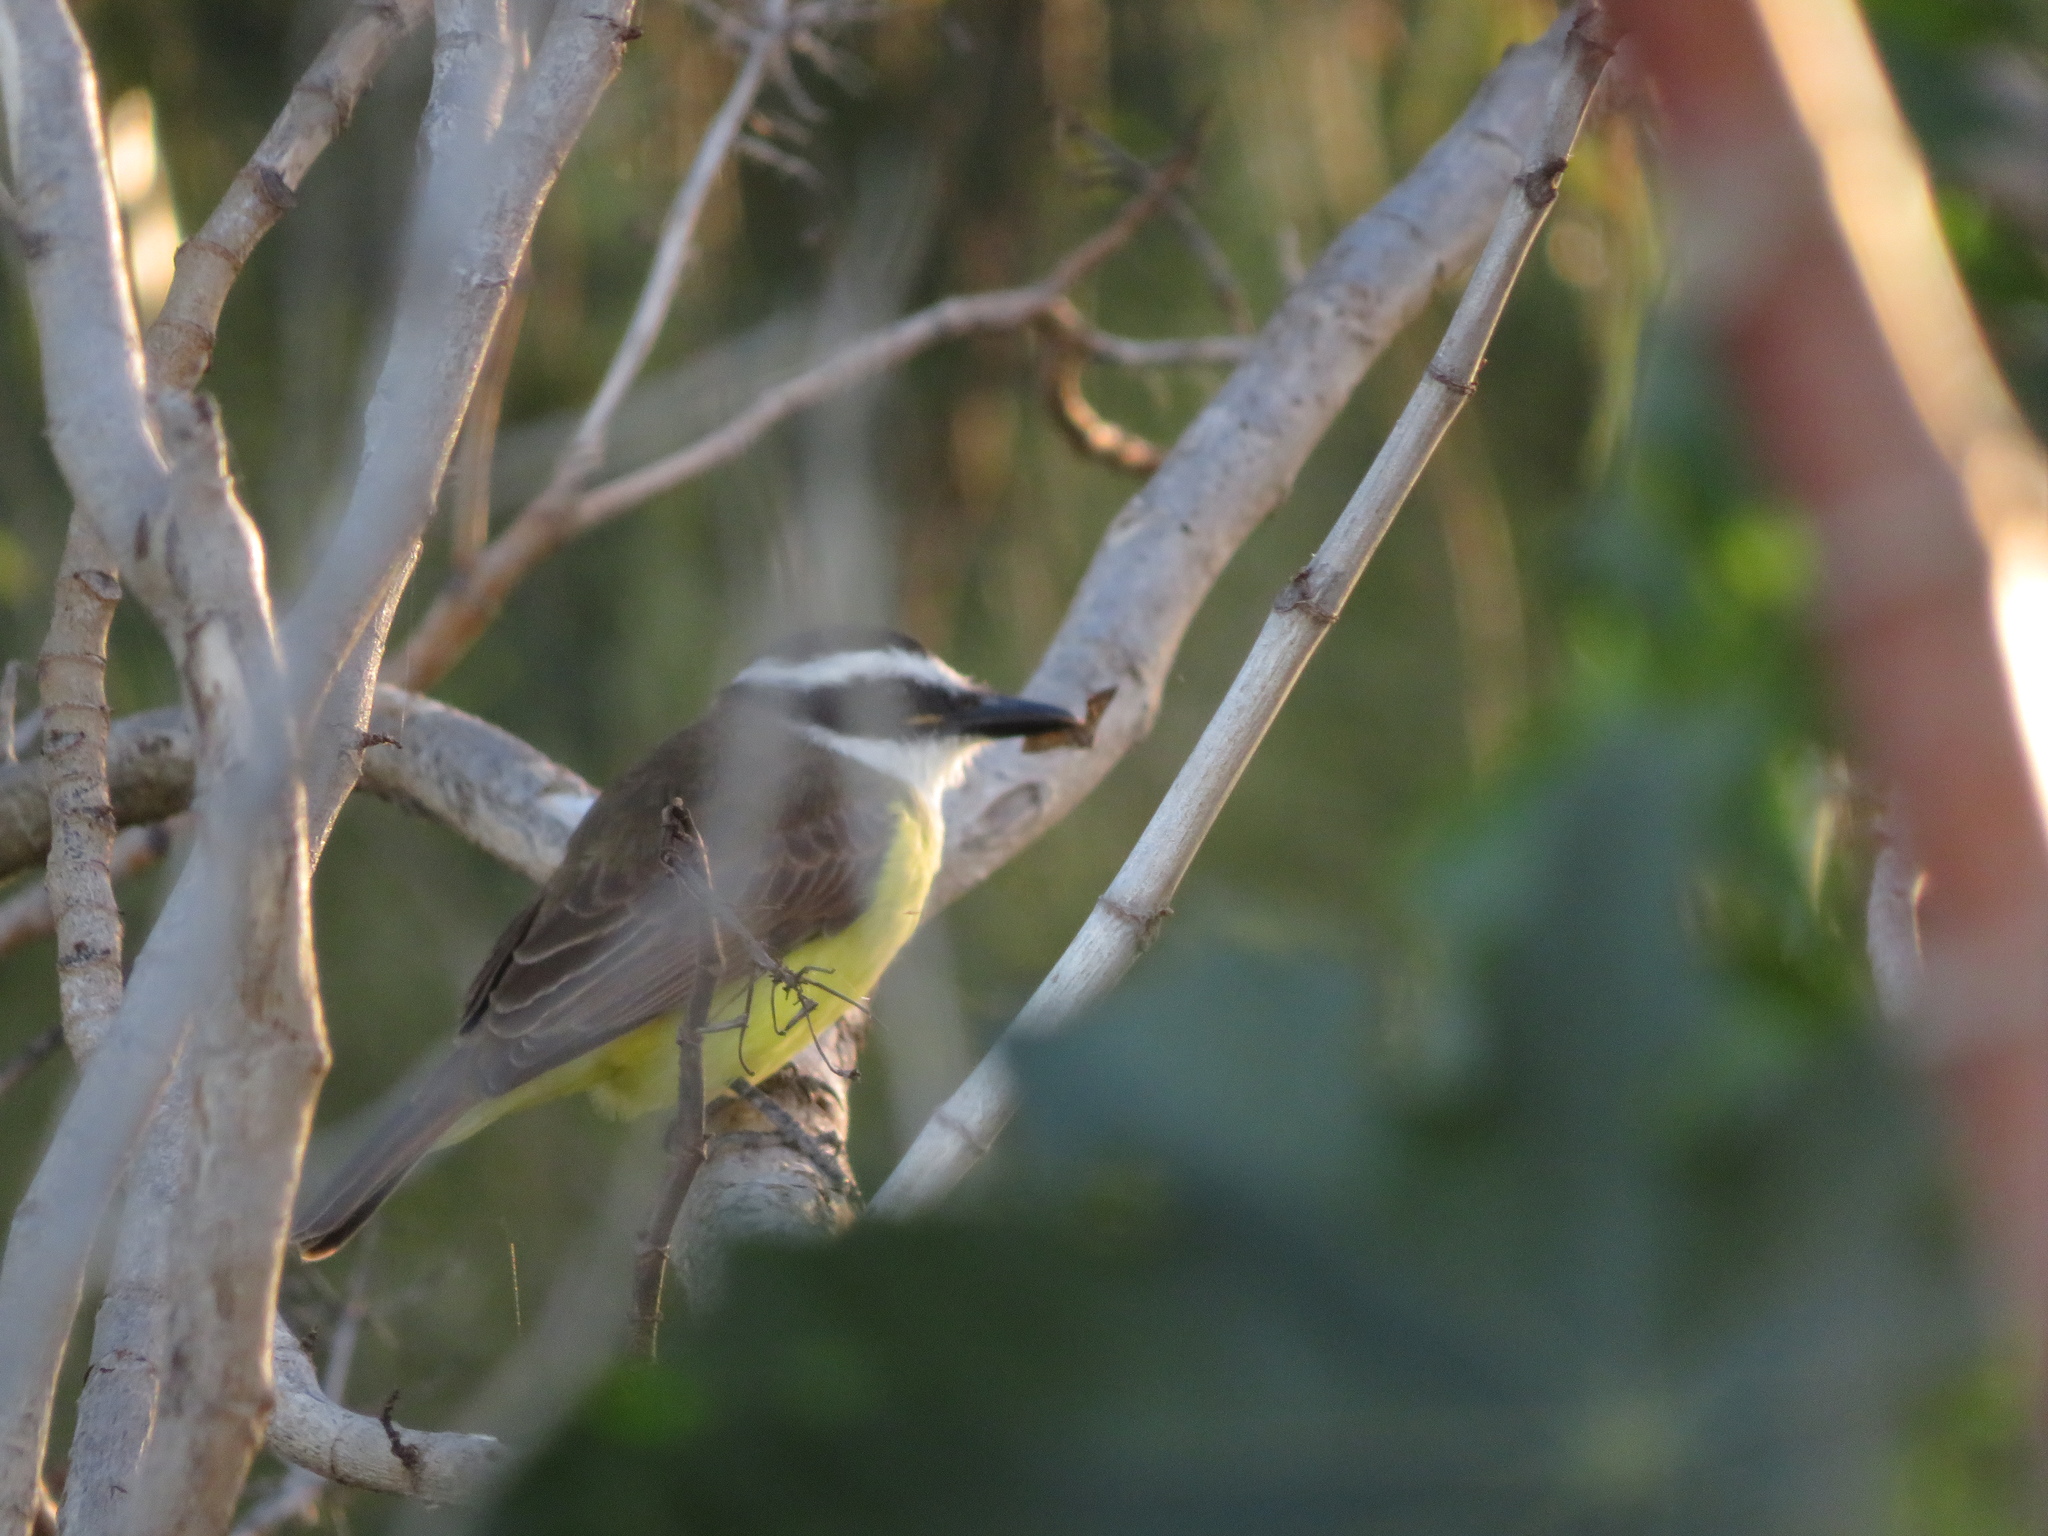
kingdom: Animalia
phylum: Chordata
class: Aves
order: Passeriformes
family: Tyrannidae
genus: Pitangus
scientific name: Pitangus sulphuratus
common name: Great kiskadee
